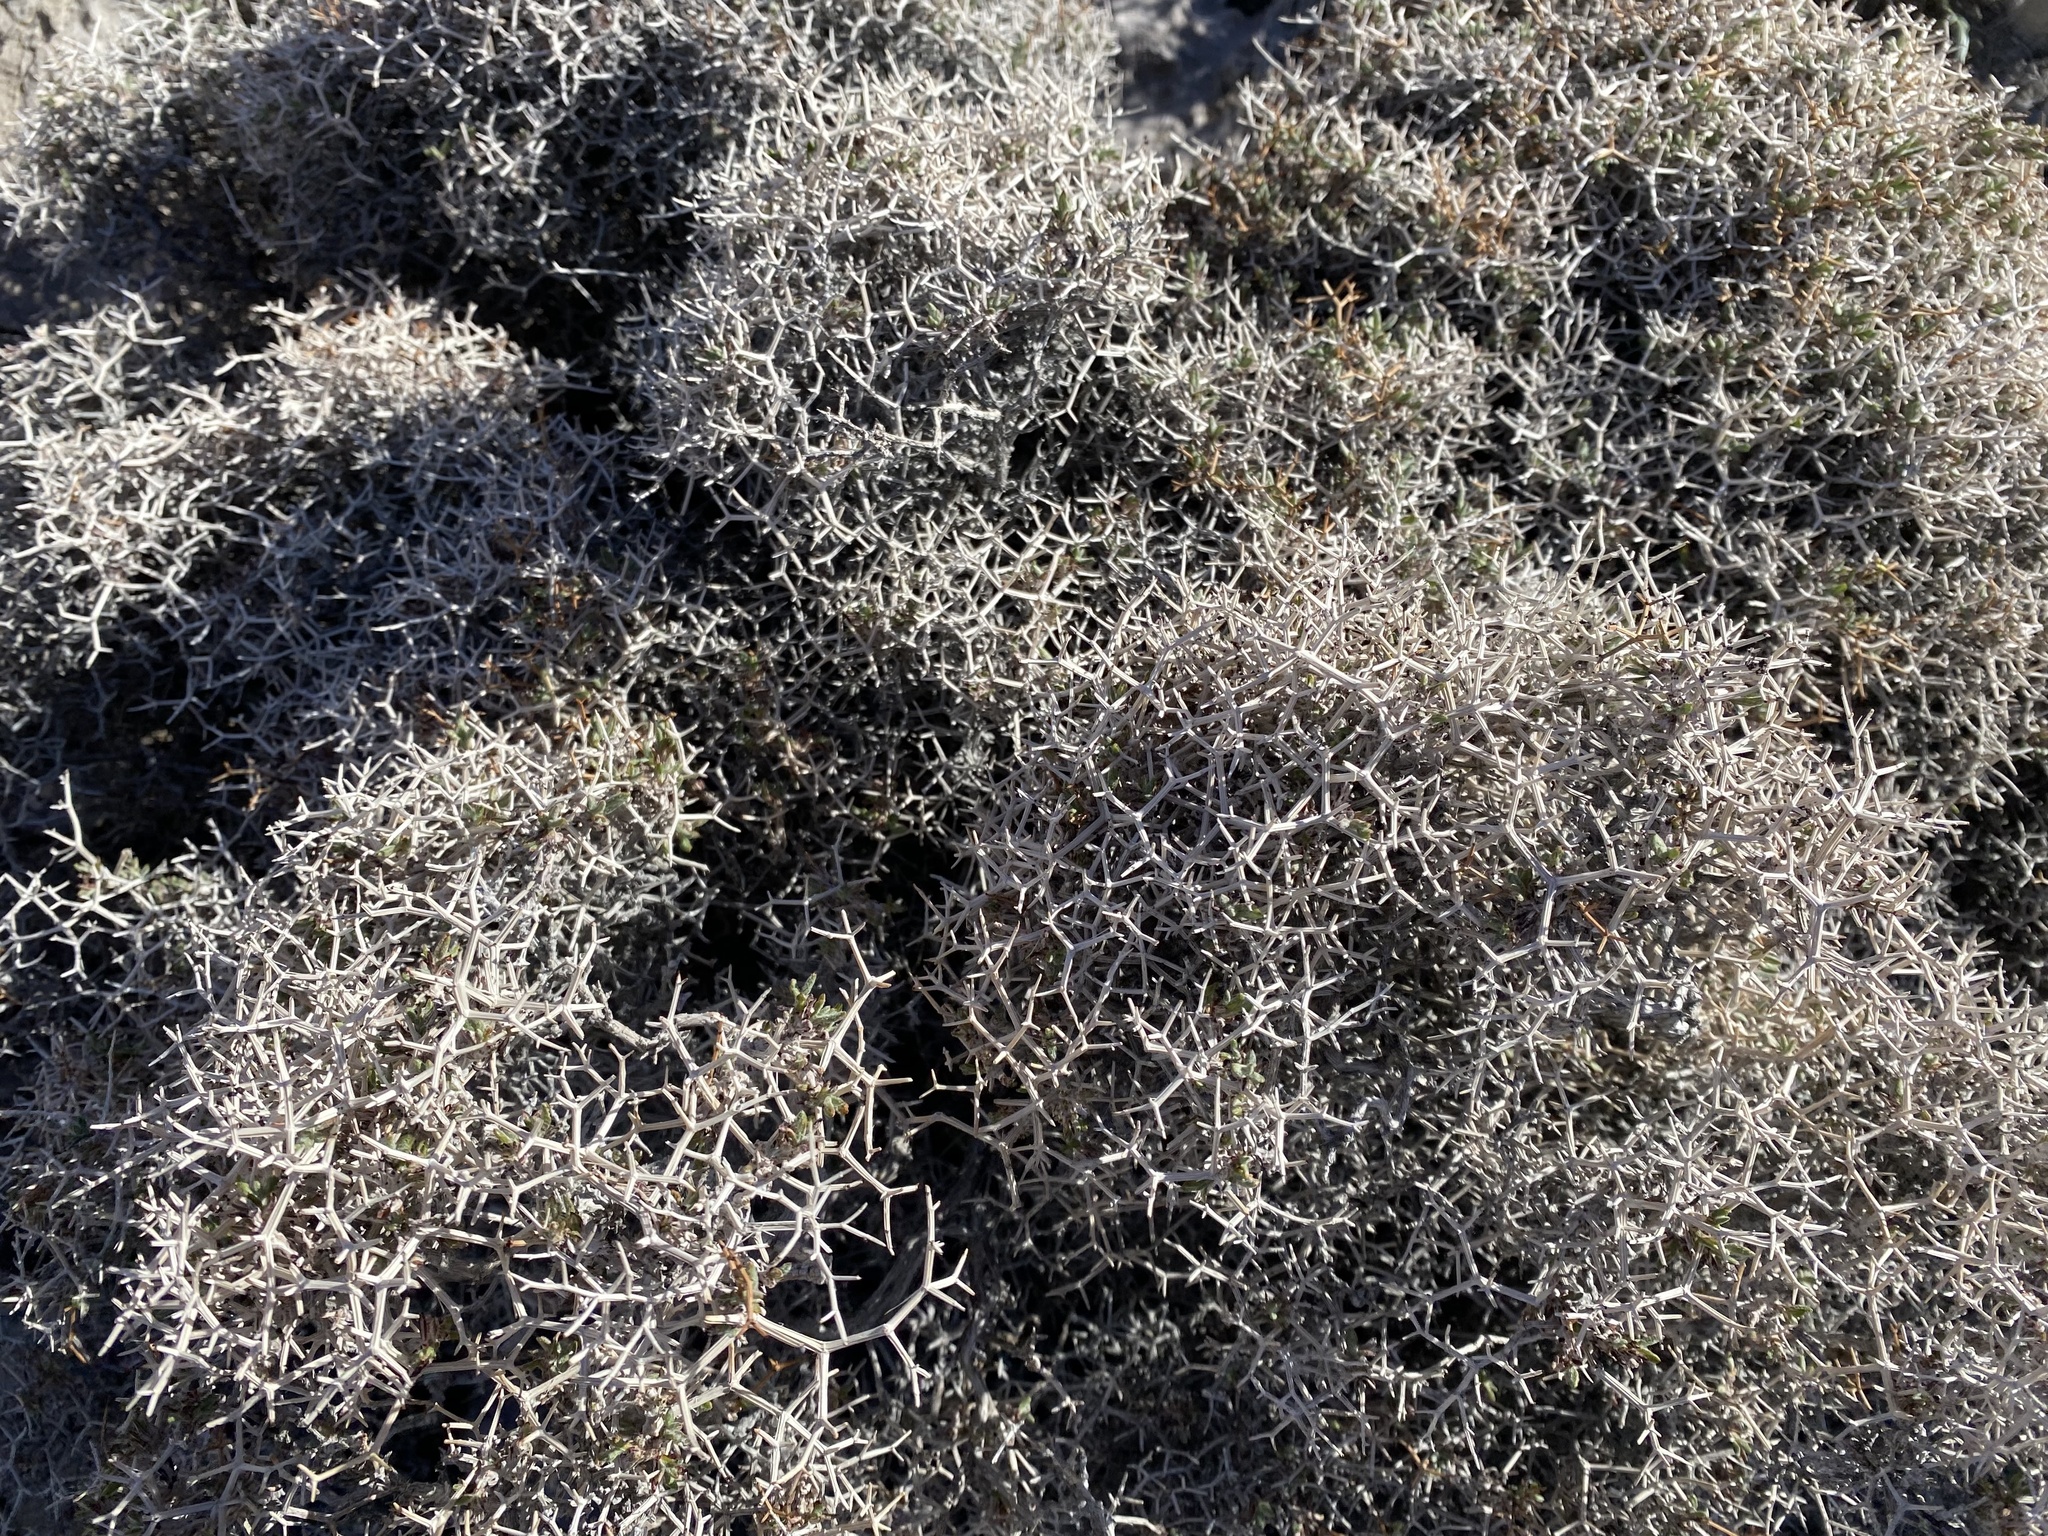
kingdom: Plantae
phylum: Tracheophyta
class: Magnoliopsida
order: Caryophyllales
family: Polygonaceae
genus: Eriogonum
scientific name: Eriogonum heermannii
